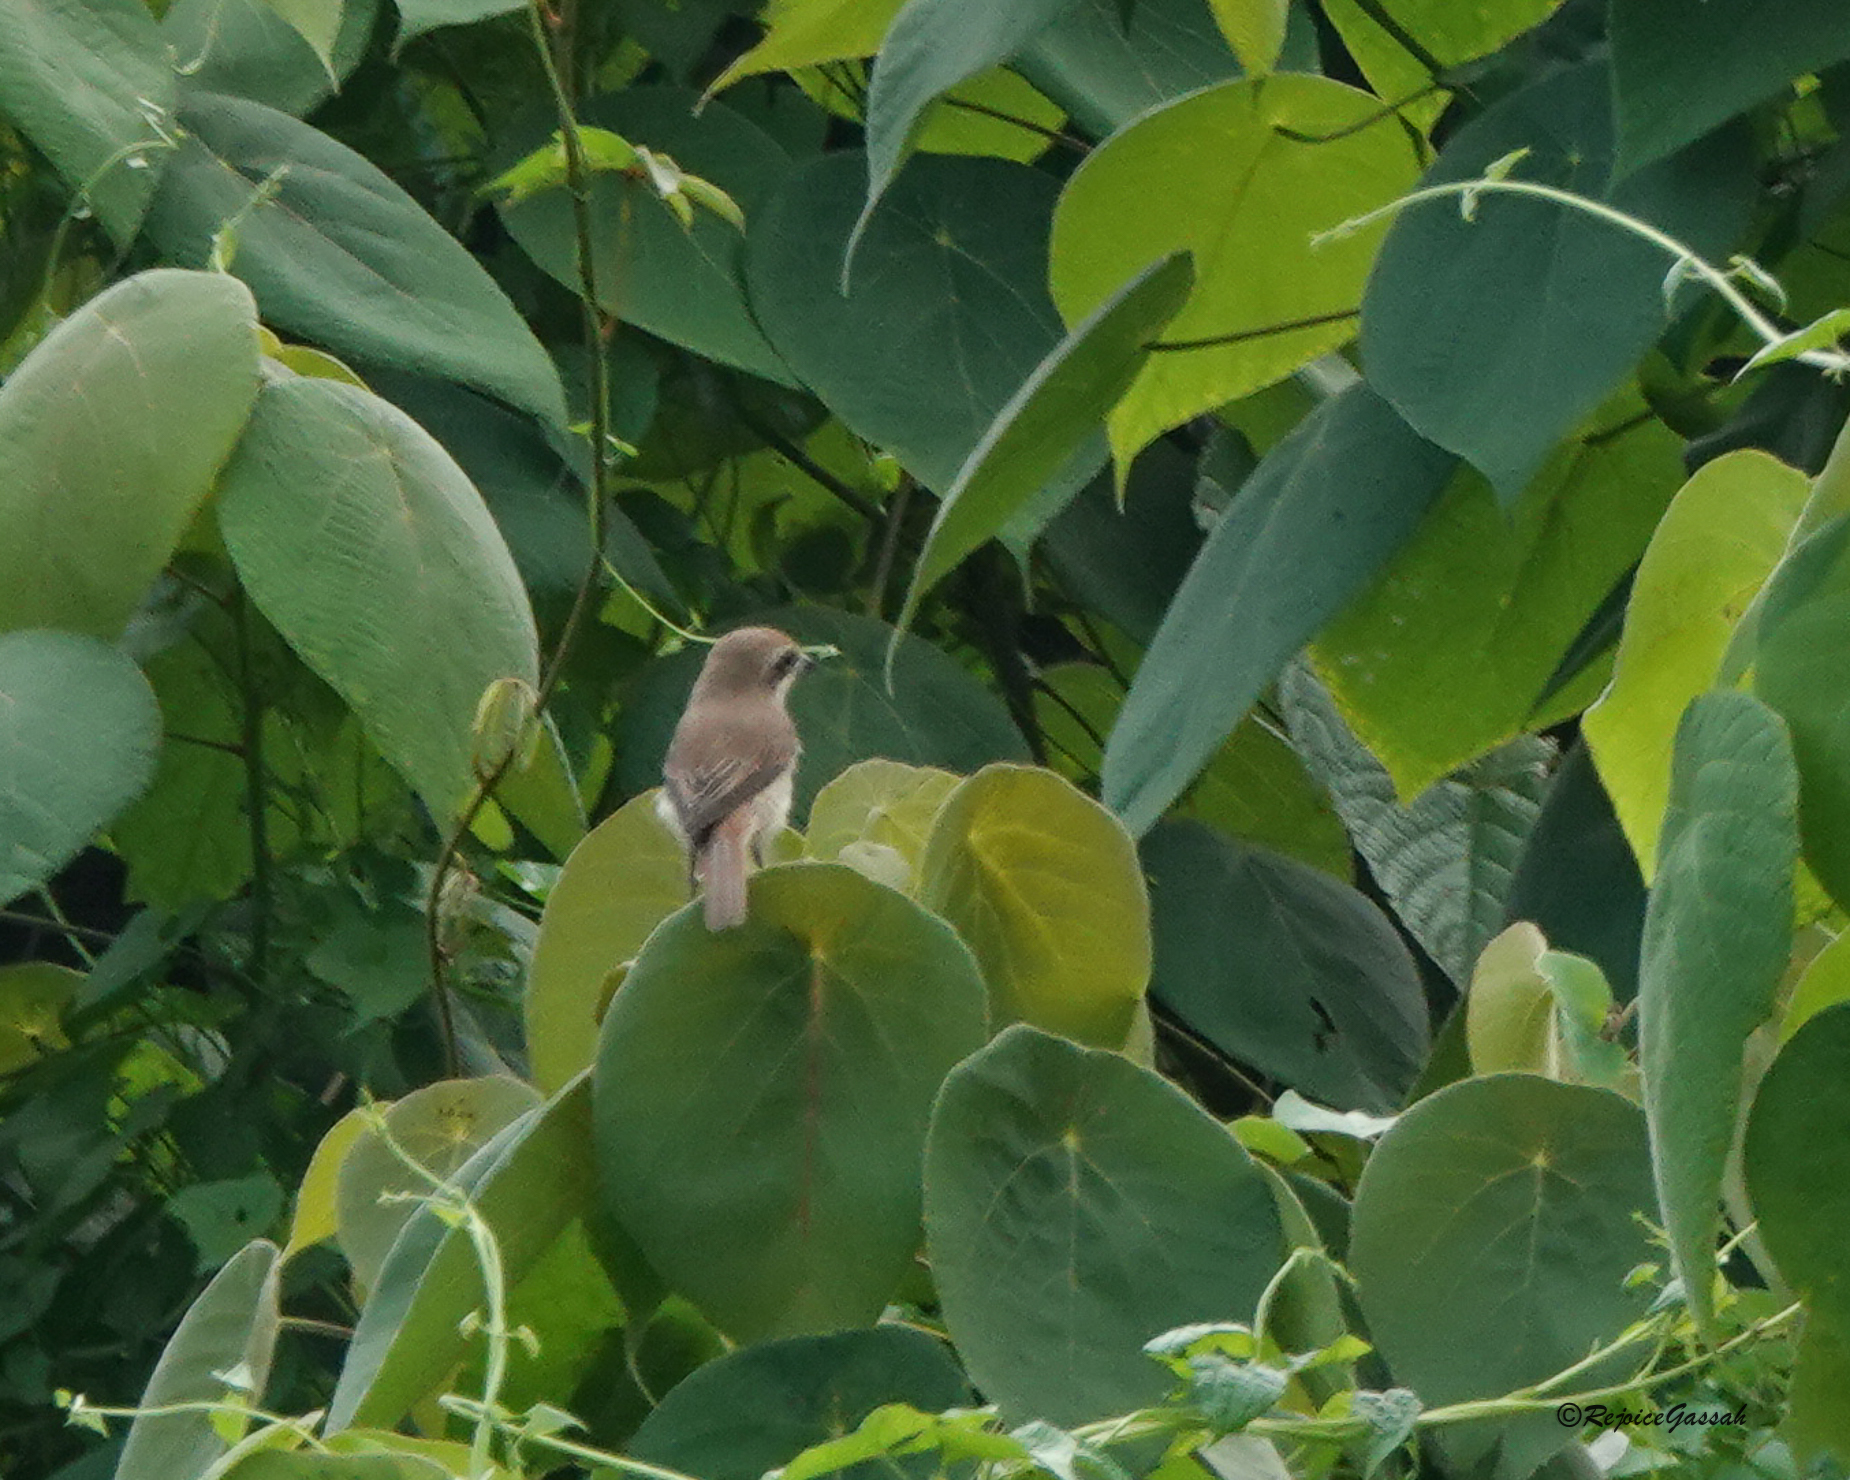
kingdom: Animalia
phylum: Chordata
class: Aves
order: Passeriformes
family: Laniidae
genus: Lanius
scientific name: Lanius cristatus
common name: Brown shrike
